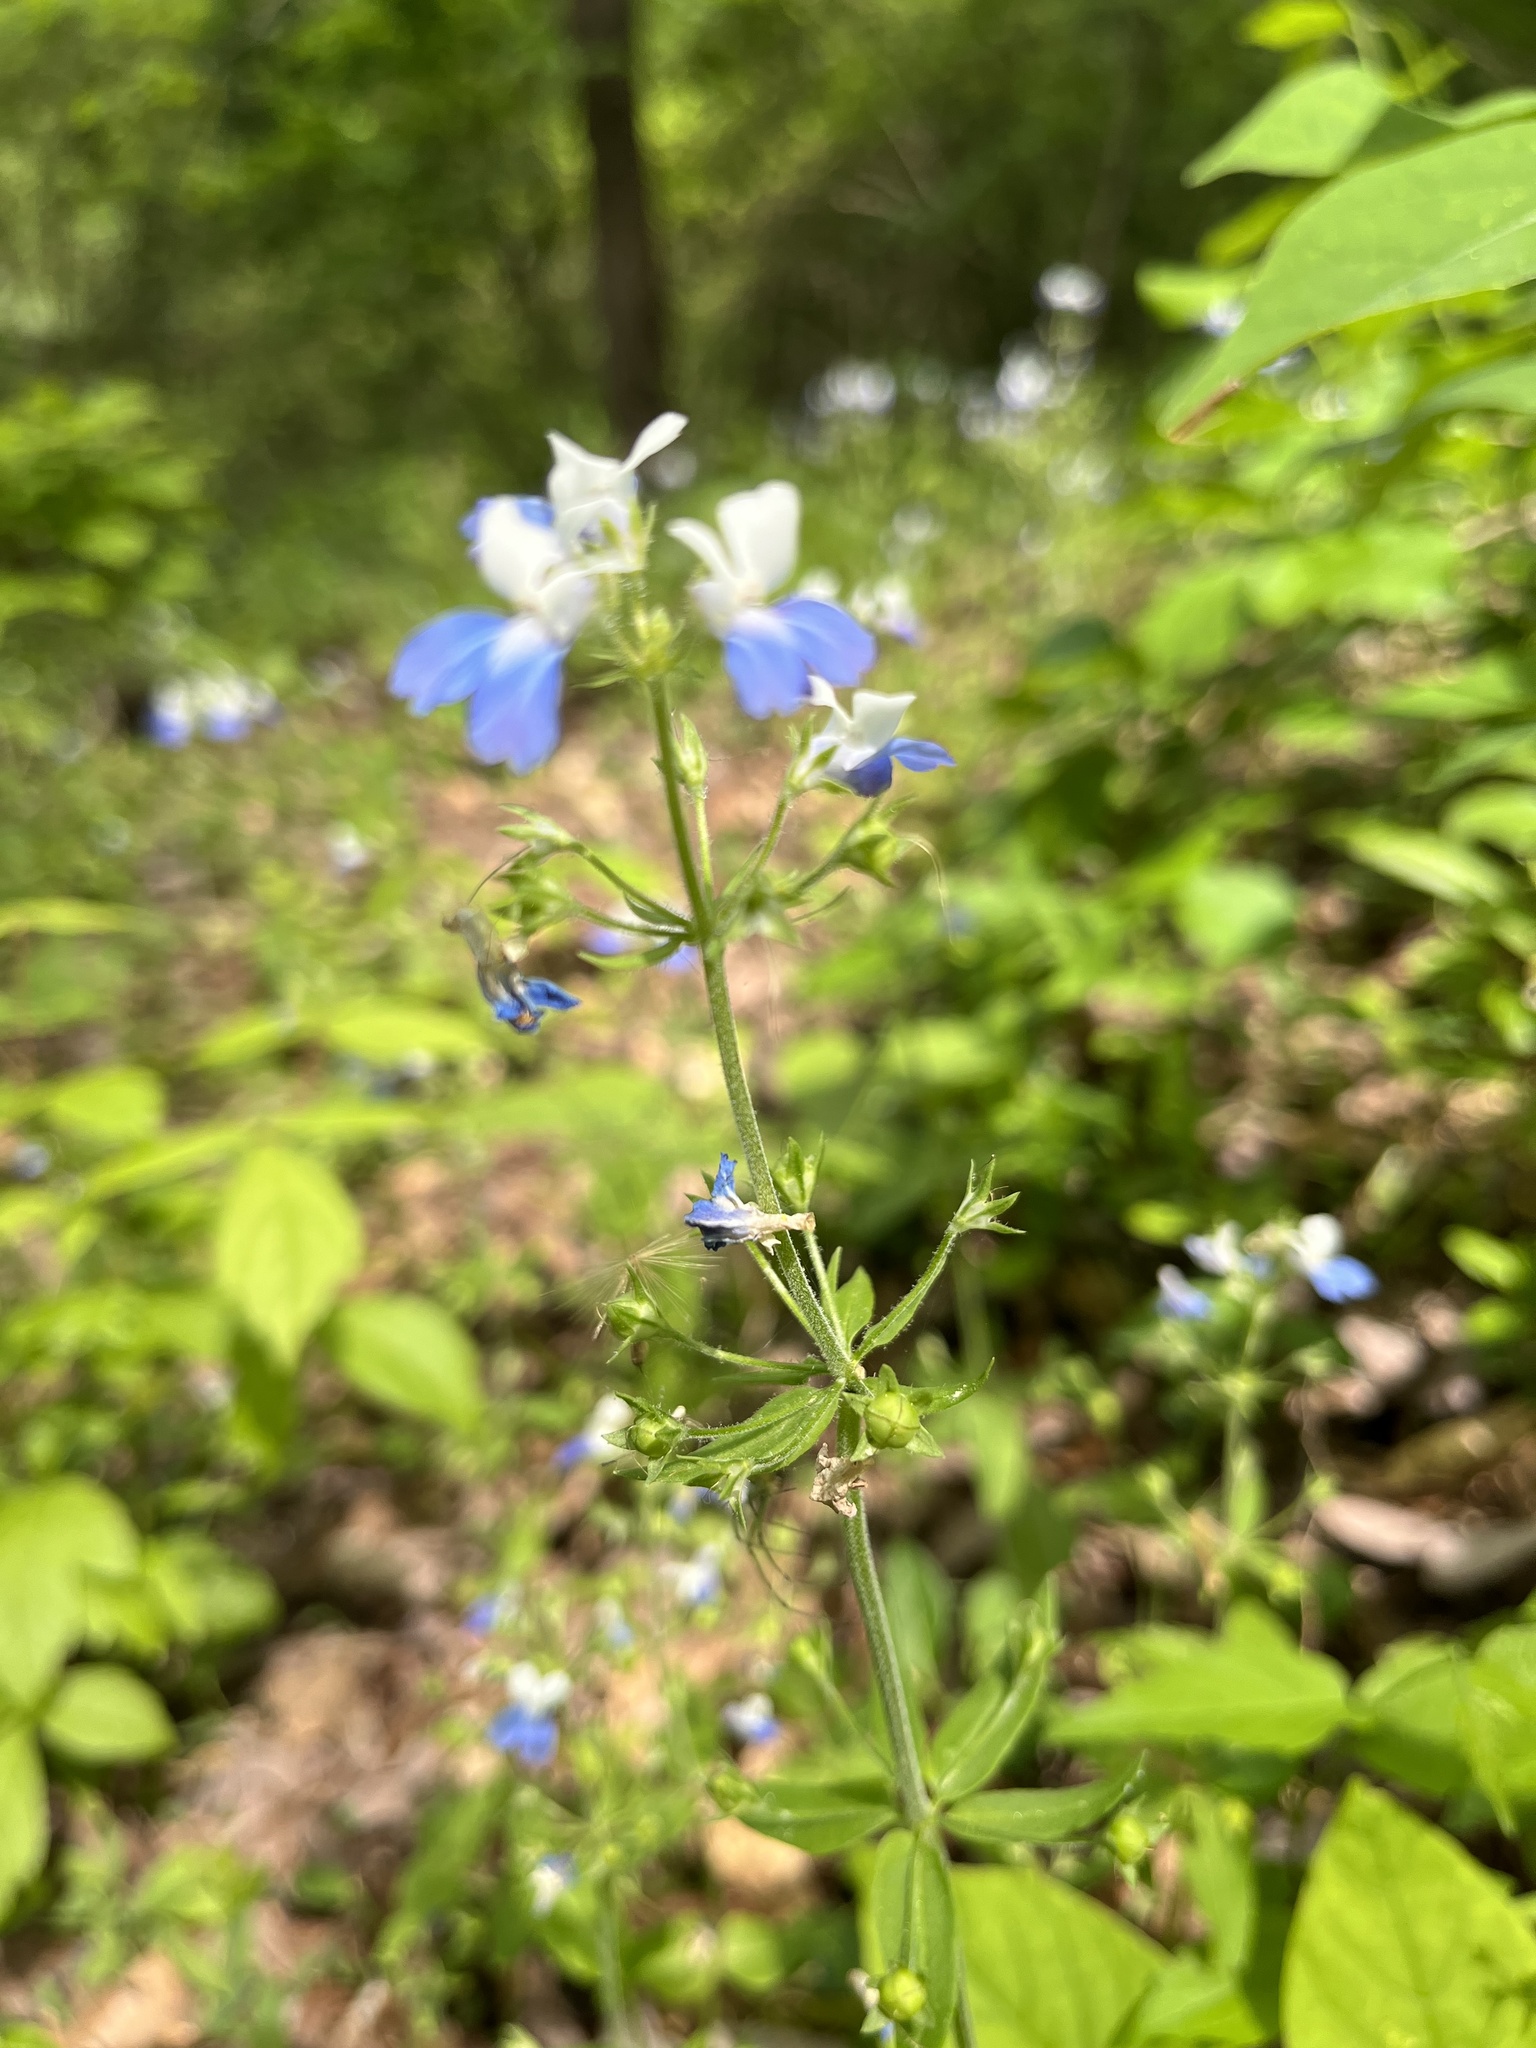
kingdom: Plantae
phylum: Tracheophyta
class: Magnoliopsida
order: Lamiales
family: Plantaginaceae
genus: Collinsia
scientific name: Collinsia verna
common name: Broad-leaved collinsia
